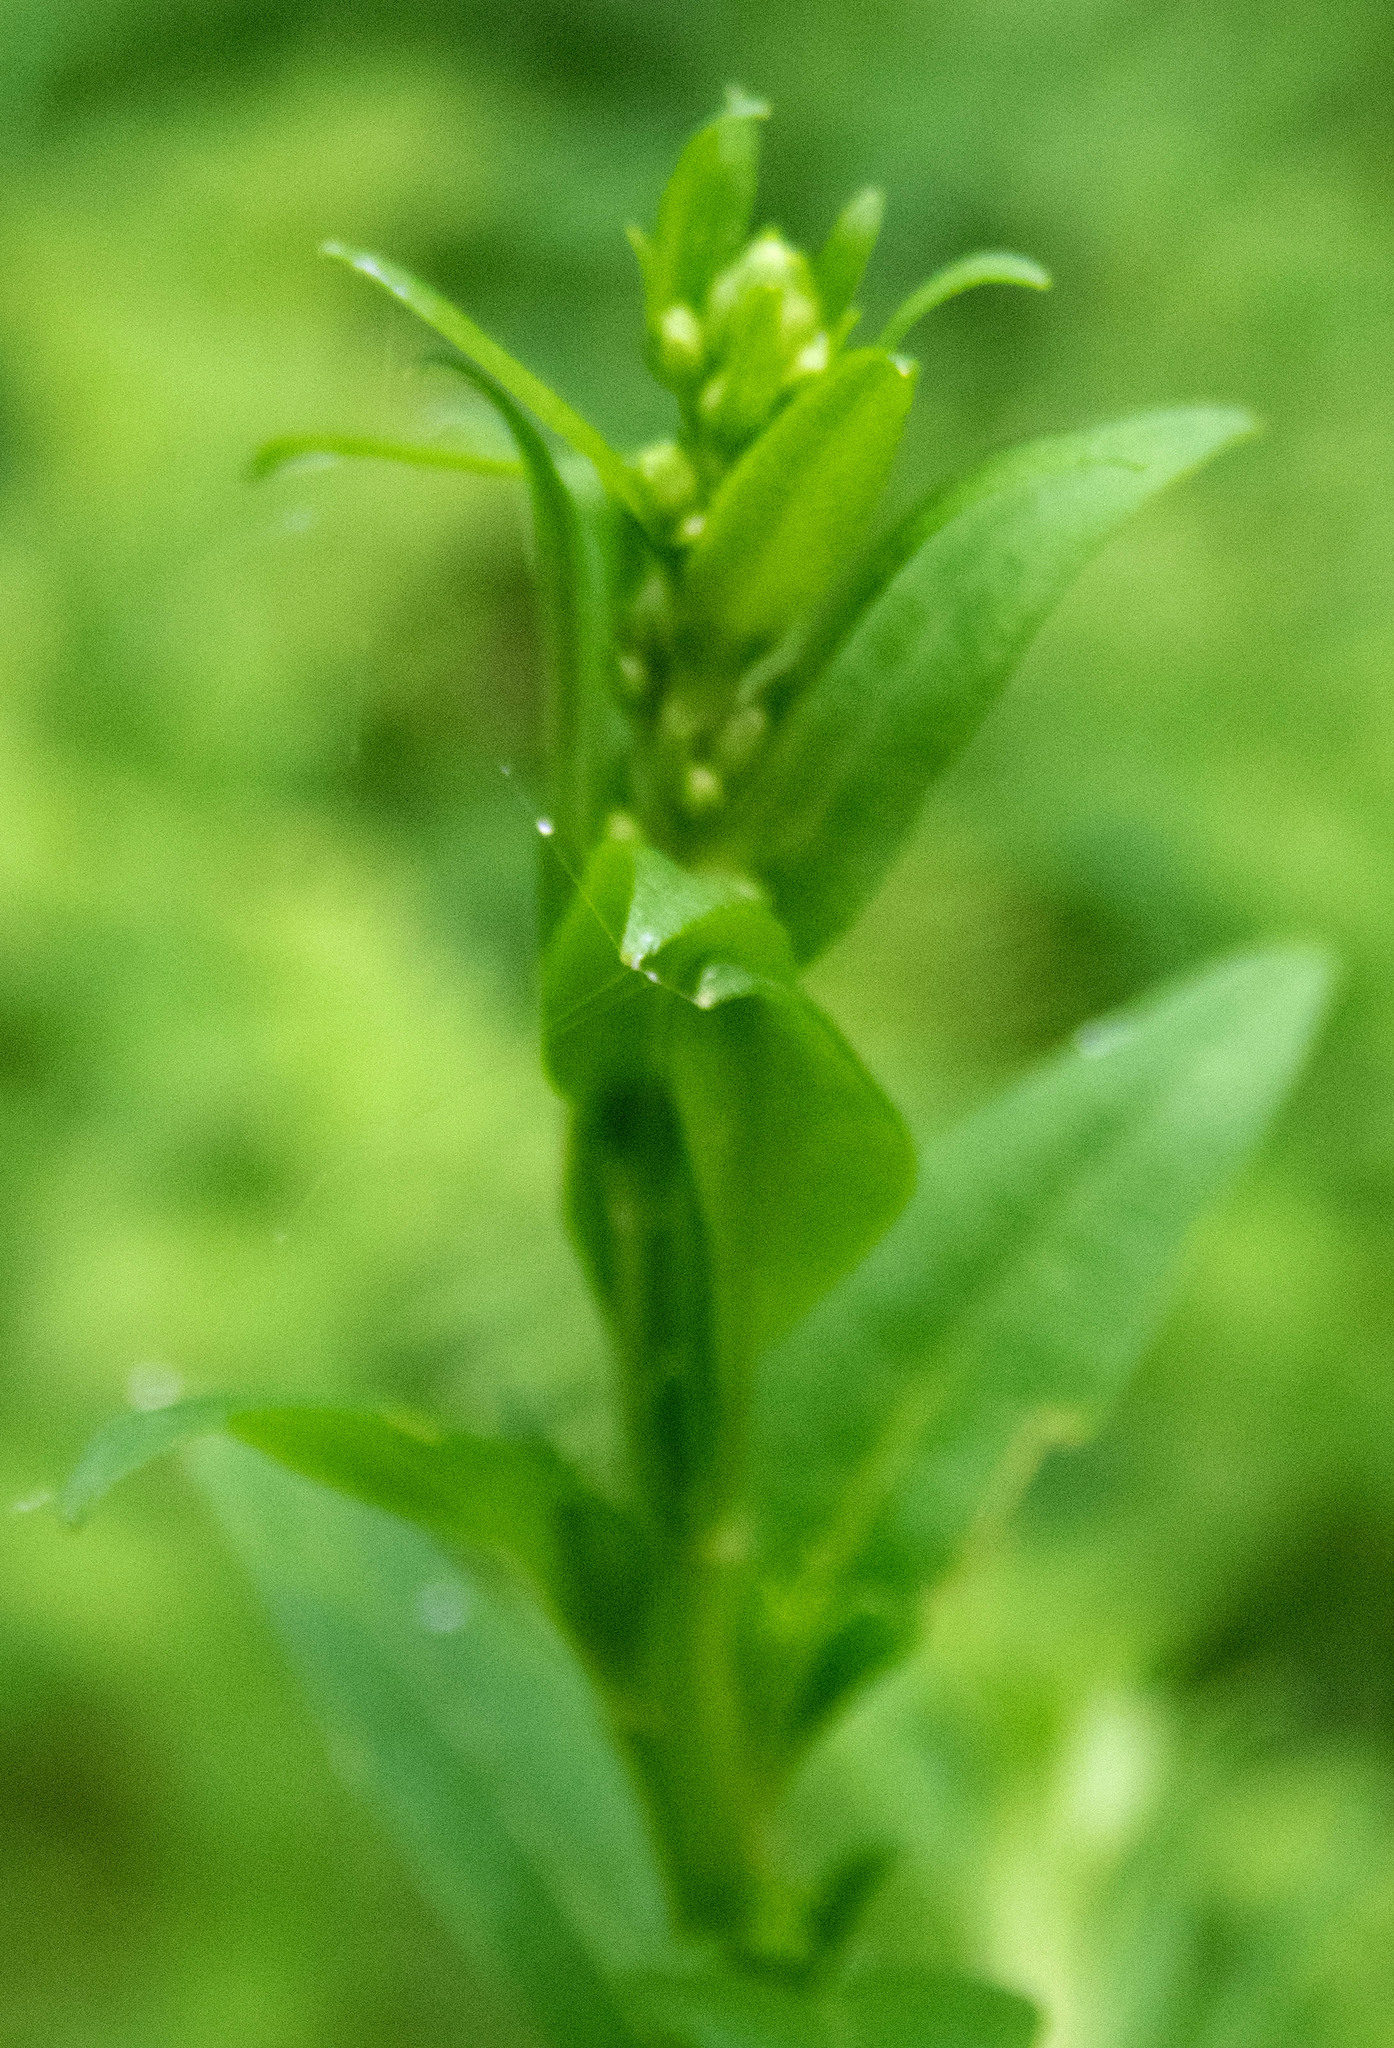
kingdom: Plantae
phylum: Tracheophyta
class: Magnoliopsida
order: Asterales
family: Asteraceae
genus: Solidago
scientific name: Solidago patula
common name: Rough-leaf goldenrod
